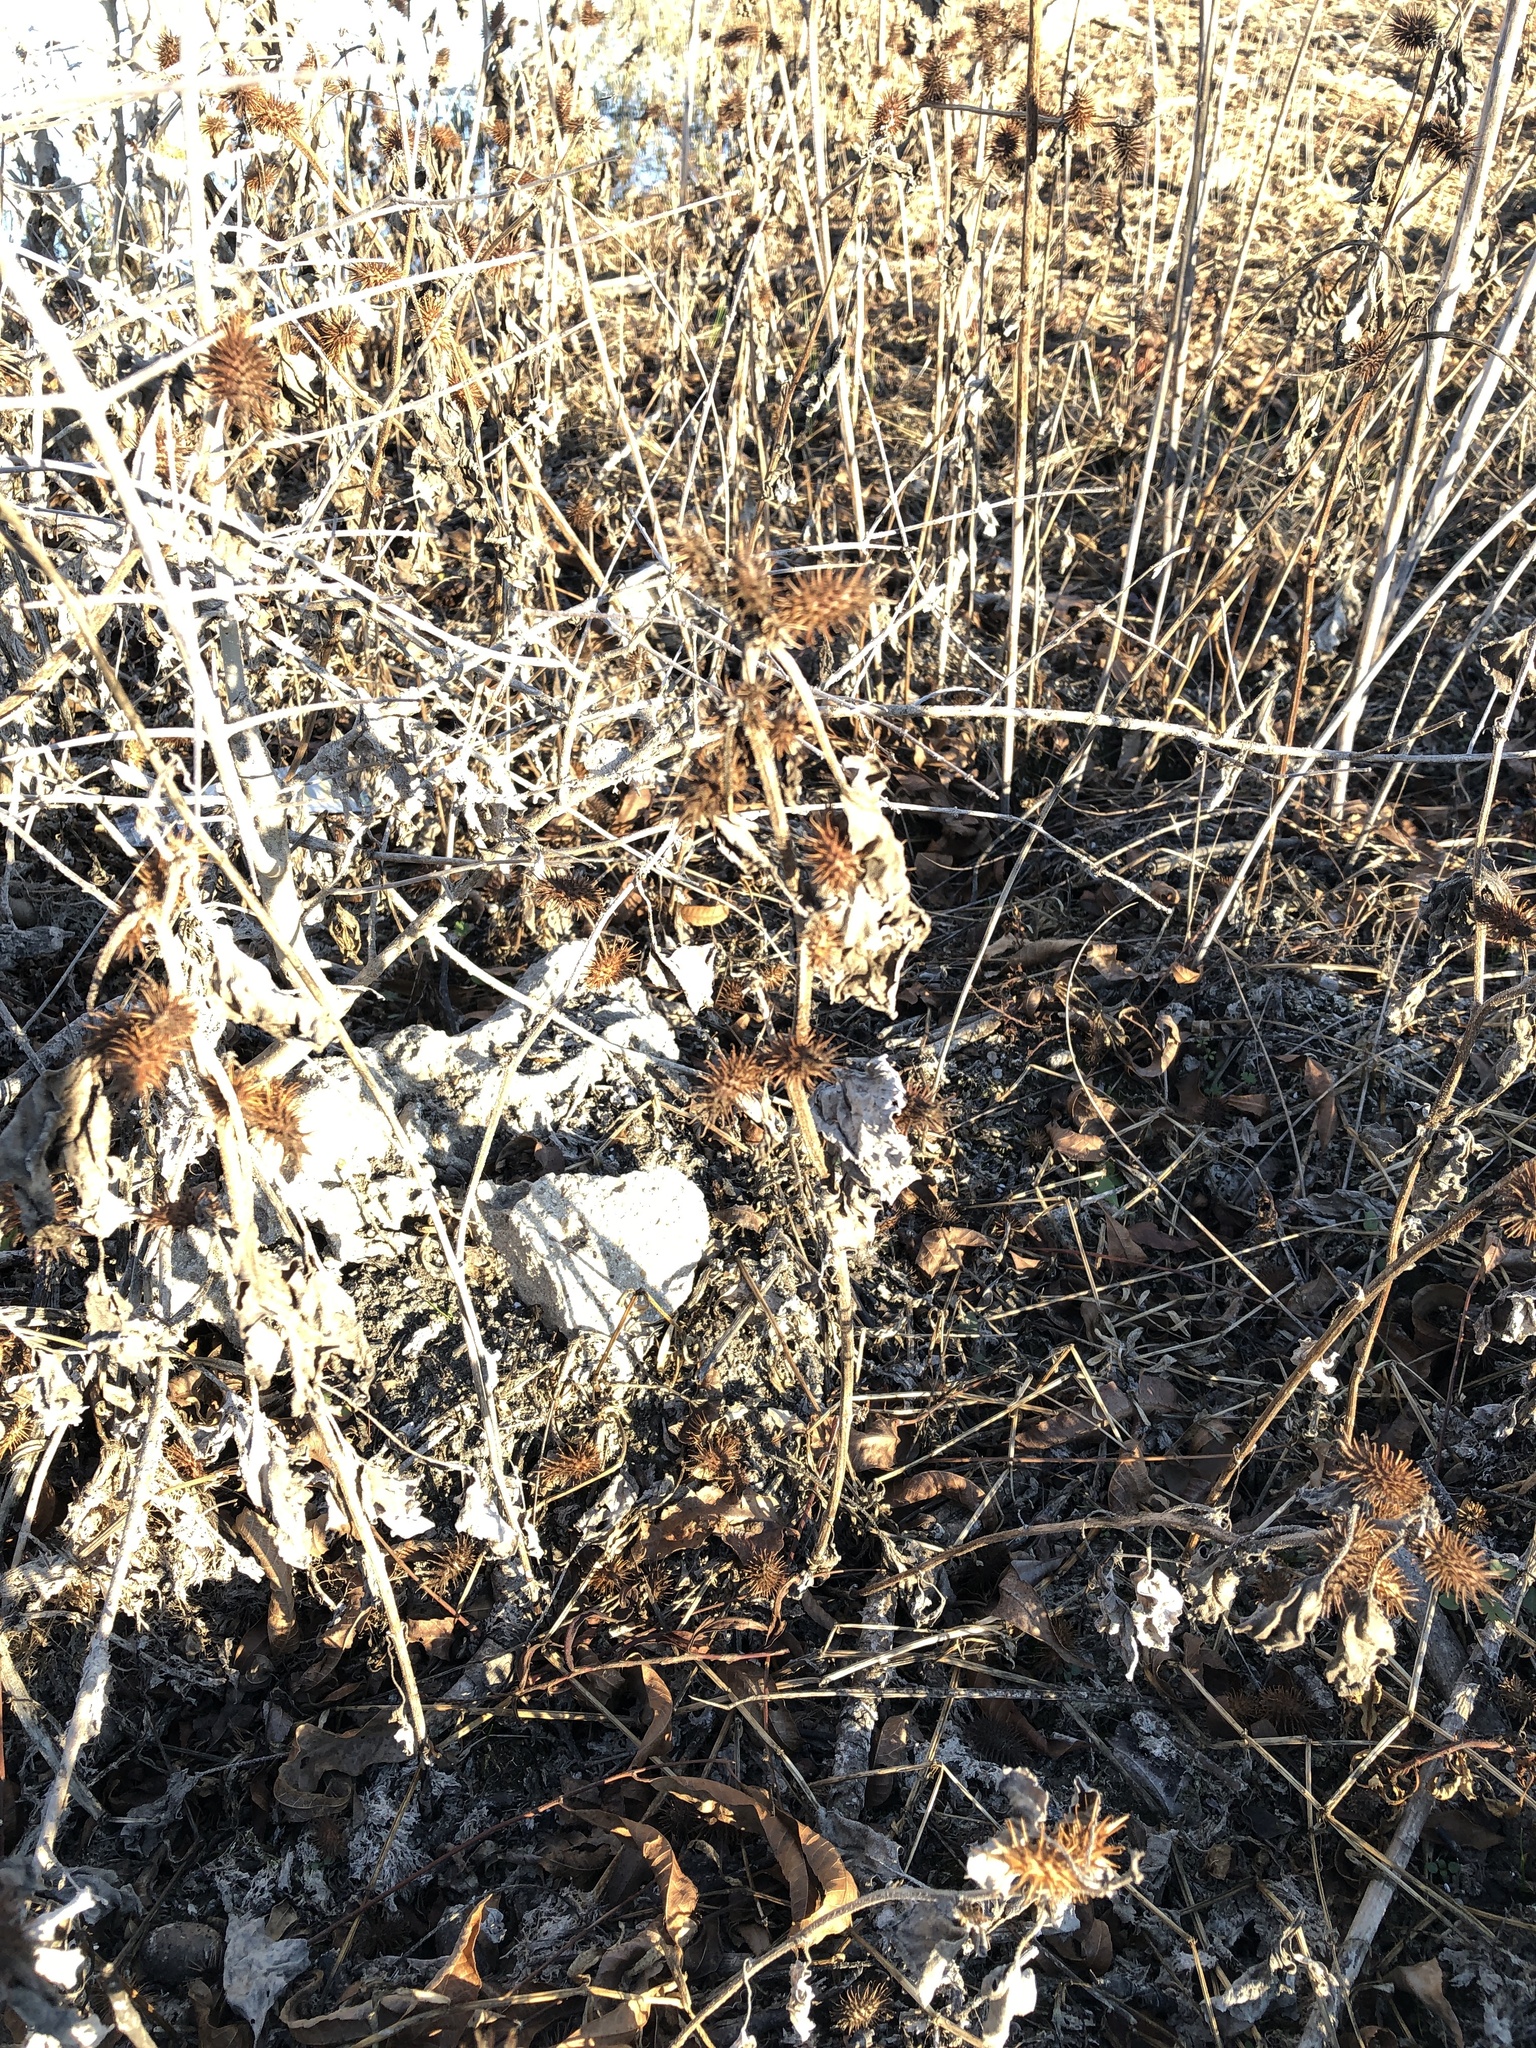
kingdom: Plantae
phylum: Tracheophyta
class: Magnoliopsida
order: Asterales
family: Asteraceae
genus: Xanthium
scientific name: Xanthium strumarium
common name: Rough cocklebur
